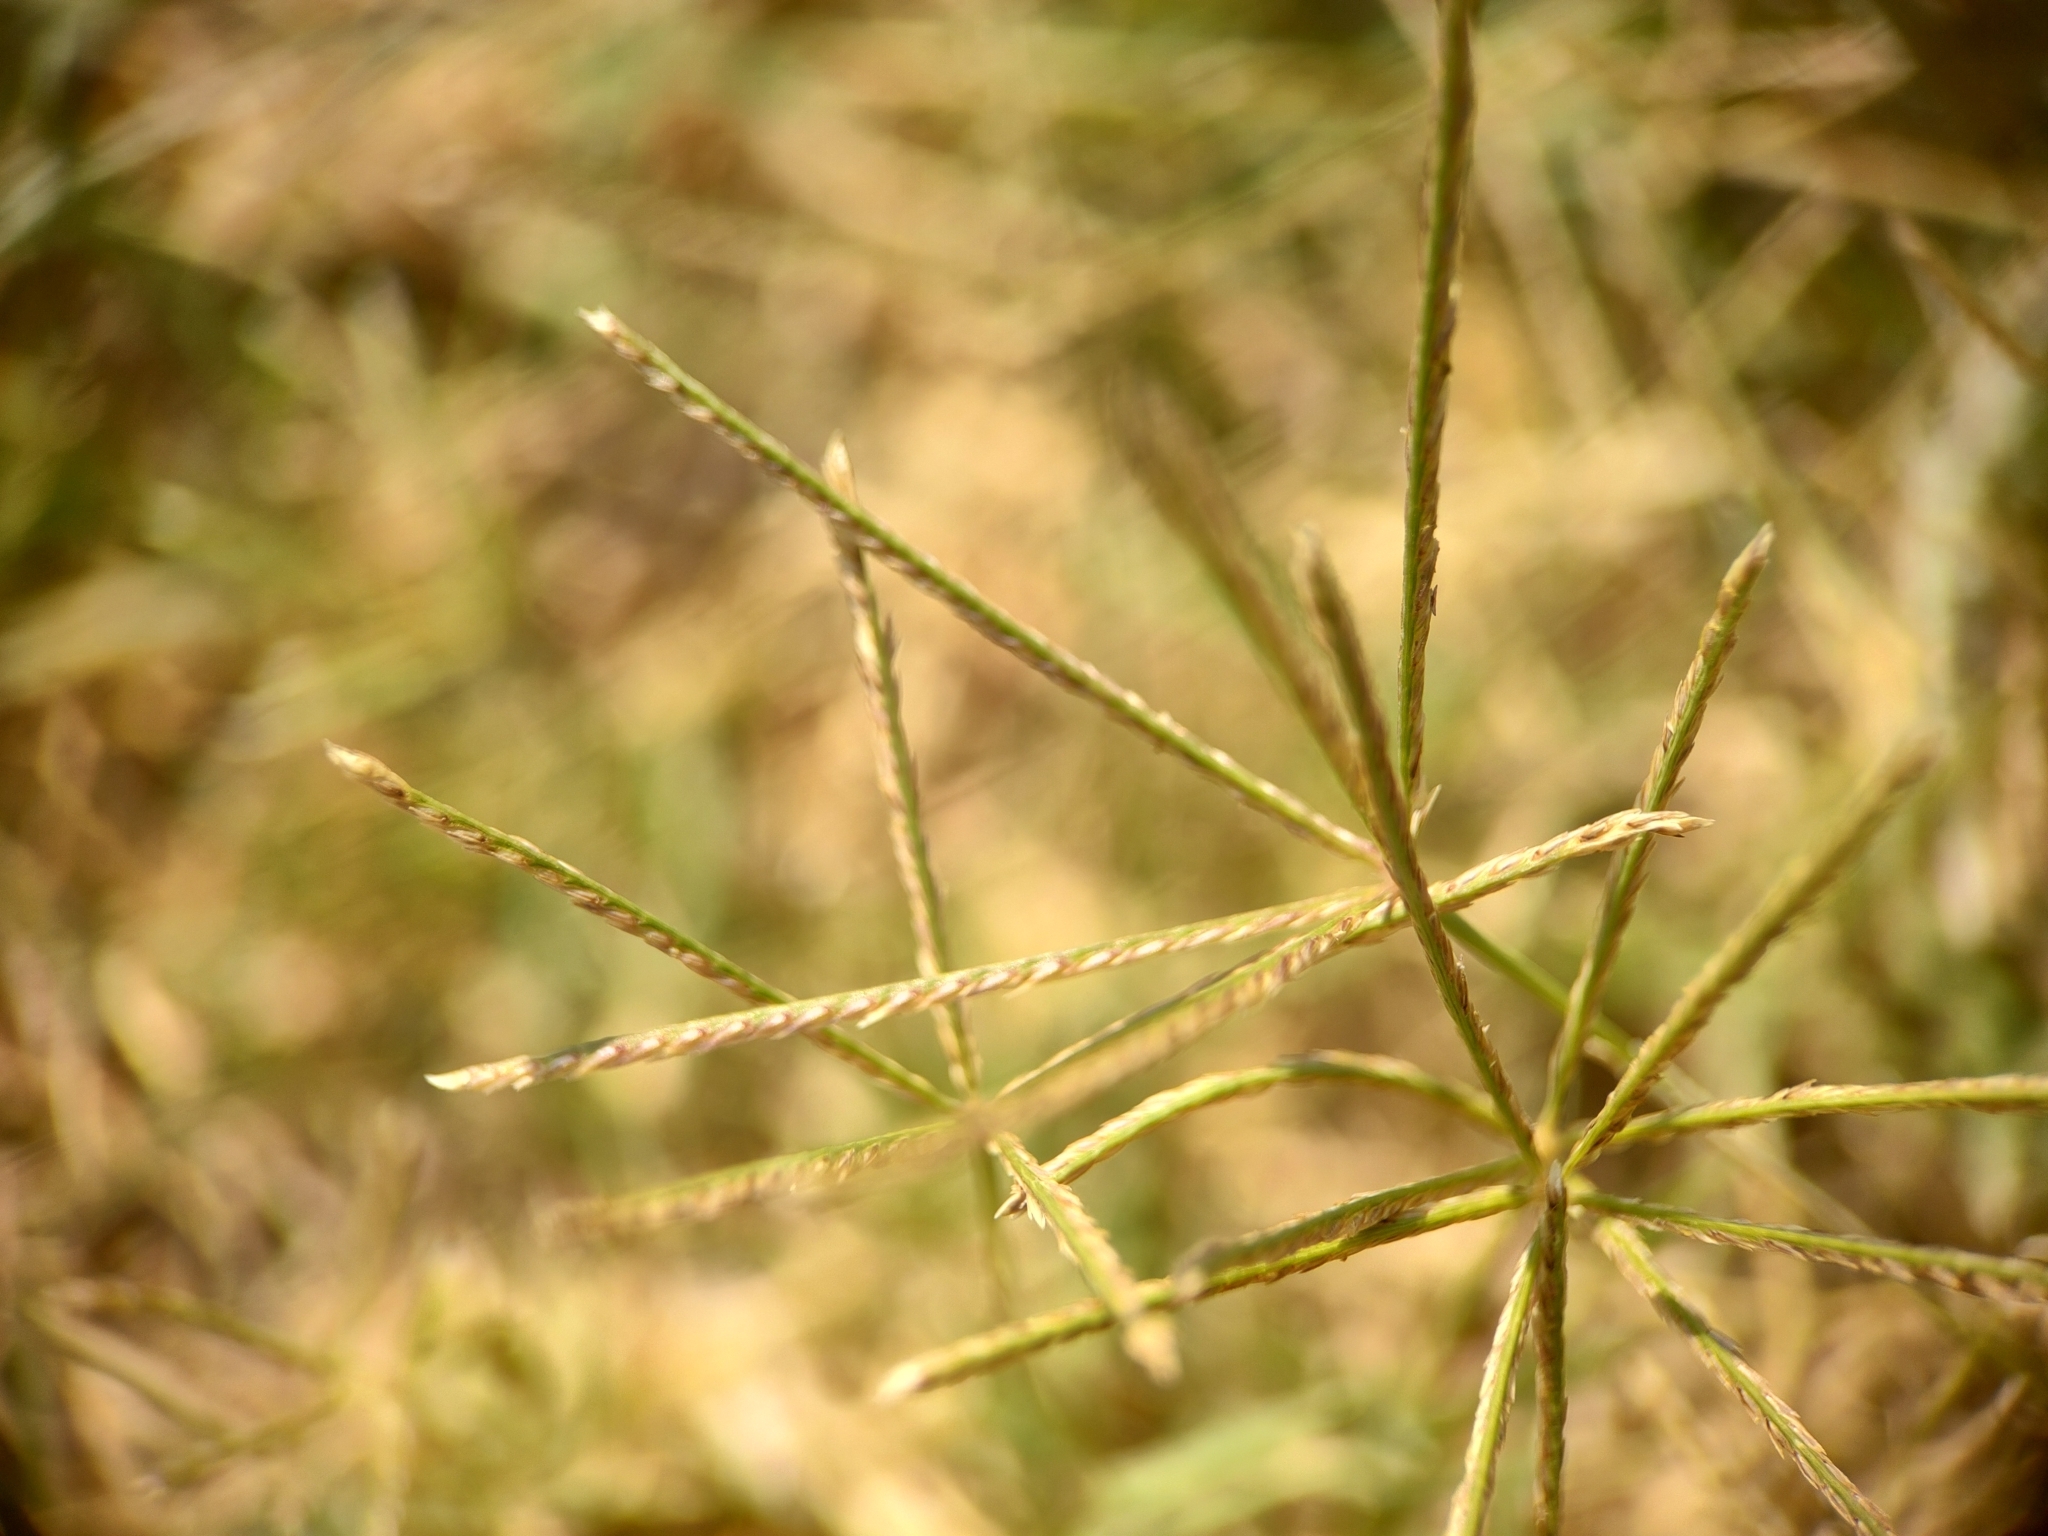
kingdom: Plantae
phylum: Tracheophyta
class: Liliopsida
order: Poales
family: Poaceae
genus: Chloris
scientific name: Chloris gayana
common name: Rhodes grass
